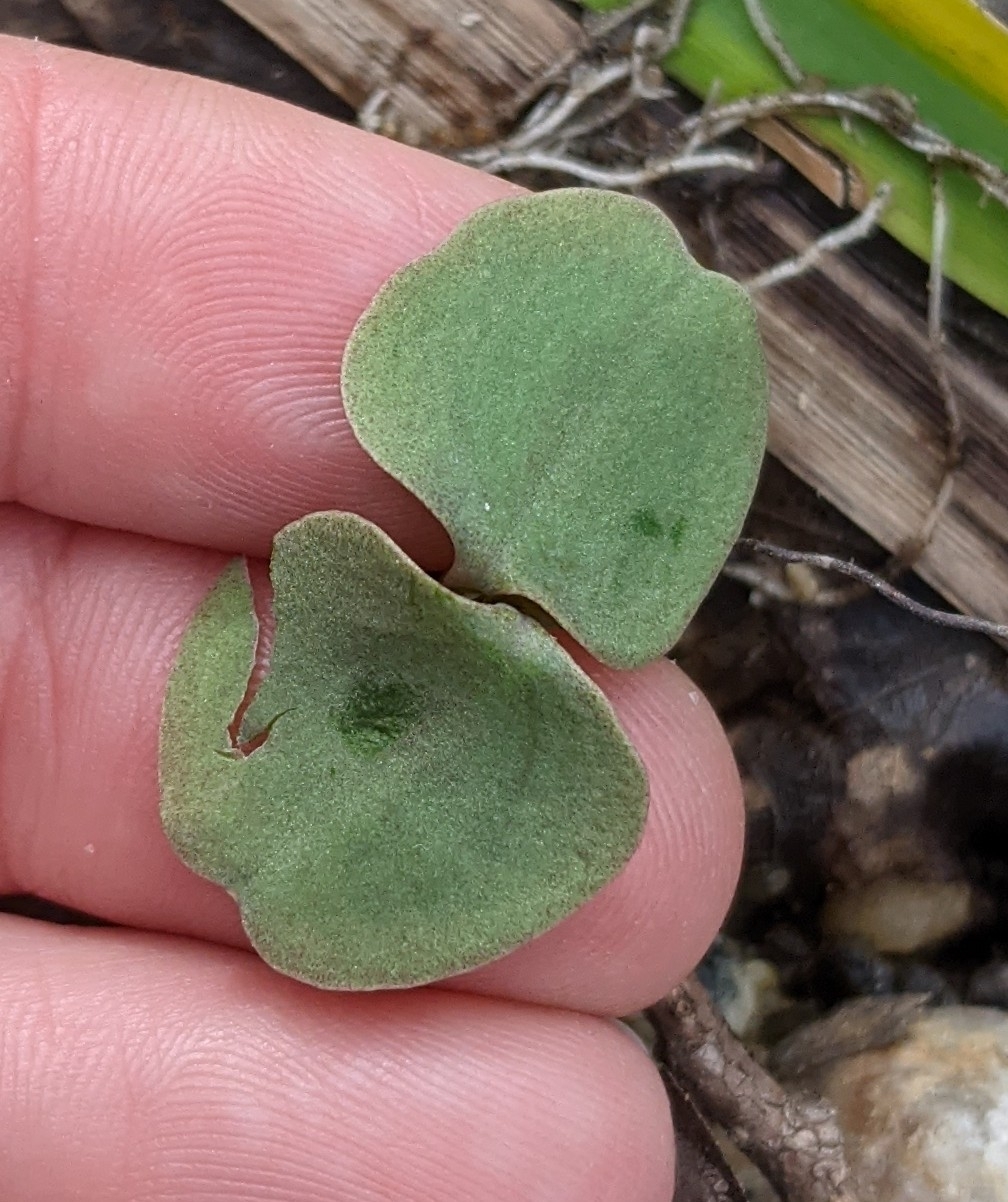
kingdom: Plantae
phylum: Tracheophyta
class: Magnoliopsida
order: Ericales
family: Balsaminaceae
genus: Impatiens
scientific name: Impatiens
